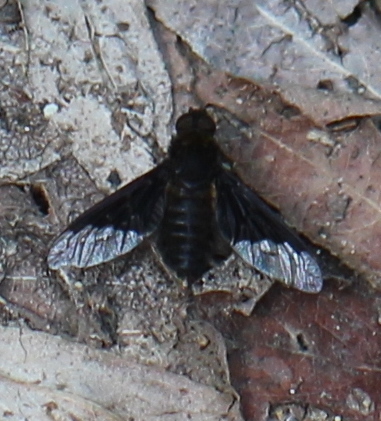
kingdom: Animalia
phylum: Arthropoda
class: Insecta
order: Diptera
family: Bombyliidae
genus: Hemipenthes
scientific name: Hemipenthes morio
